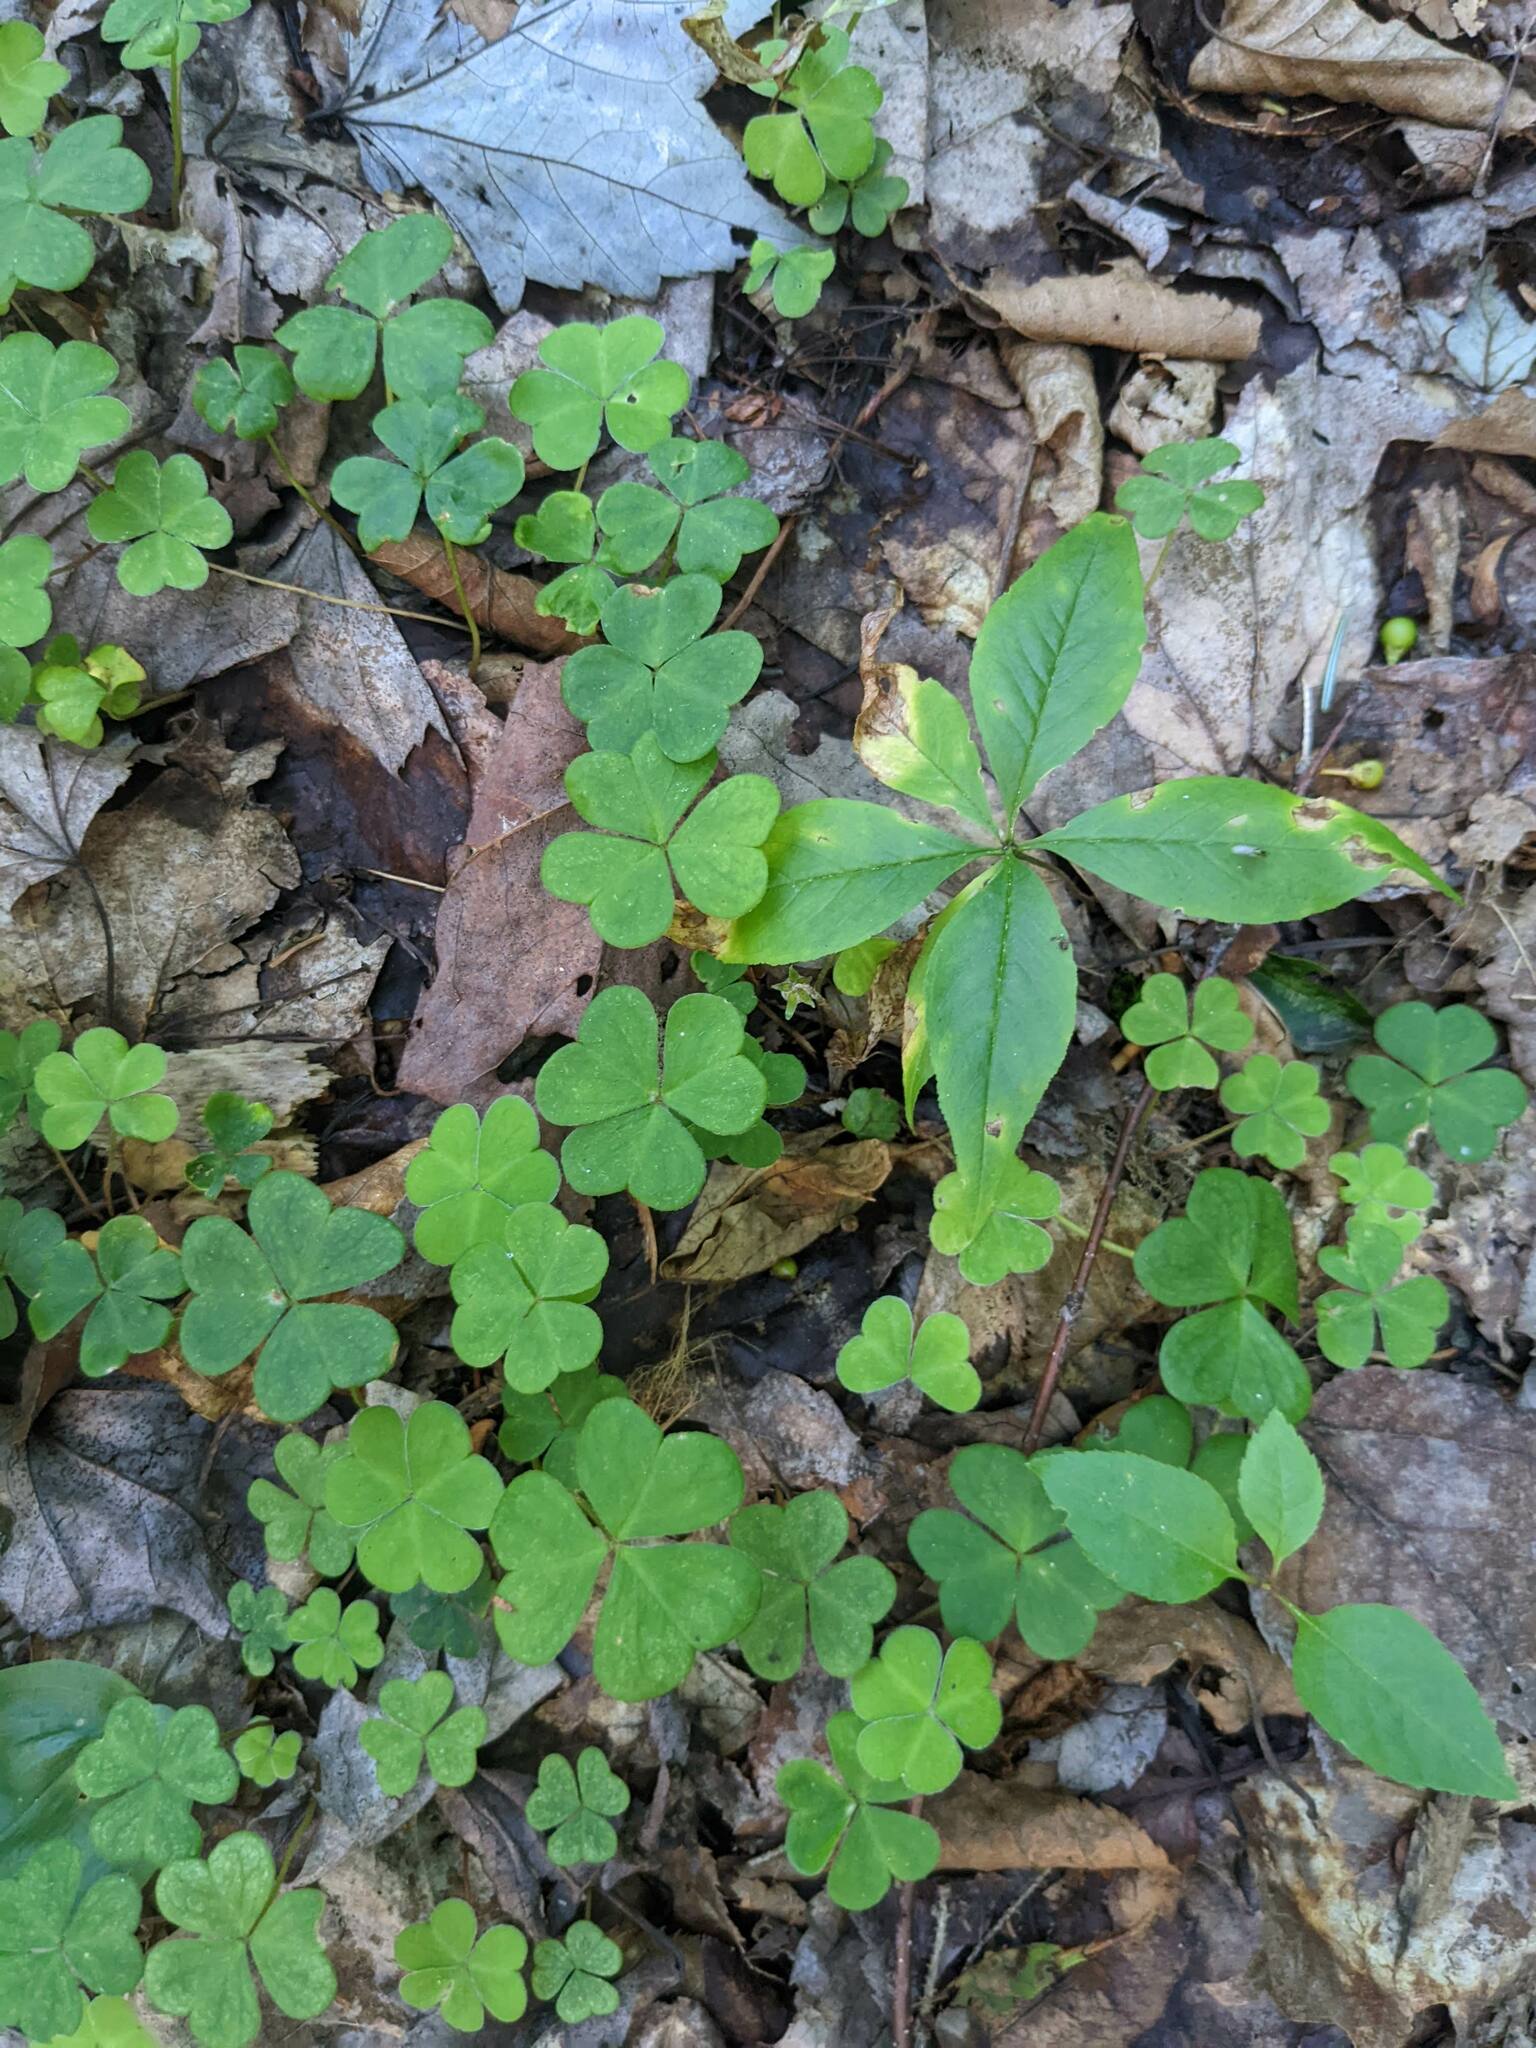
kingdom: Plantae
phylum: Tracheophyta
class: Magnoliopsida
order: Oxalidales
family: Oxalidaceae
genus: Oxalis
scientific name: Oxalis montana
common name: American wood-sorrel
